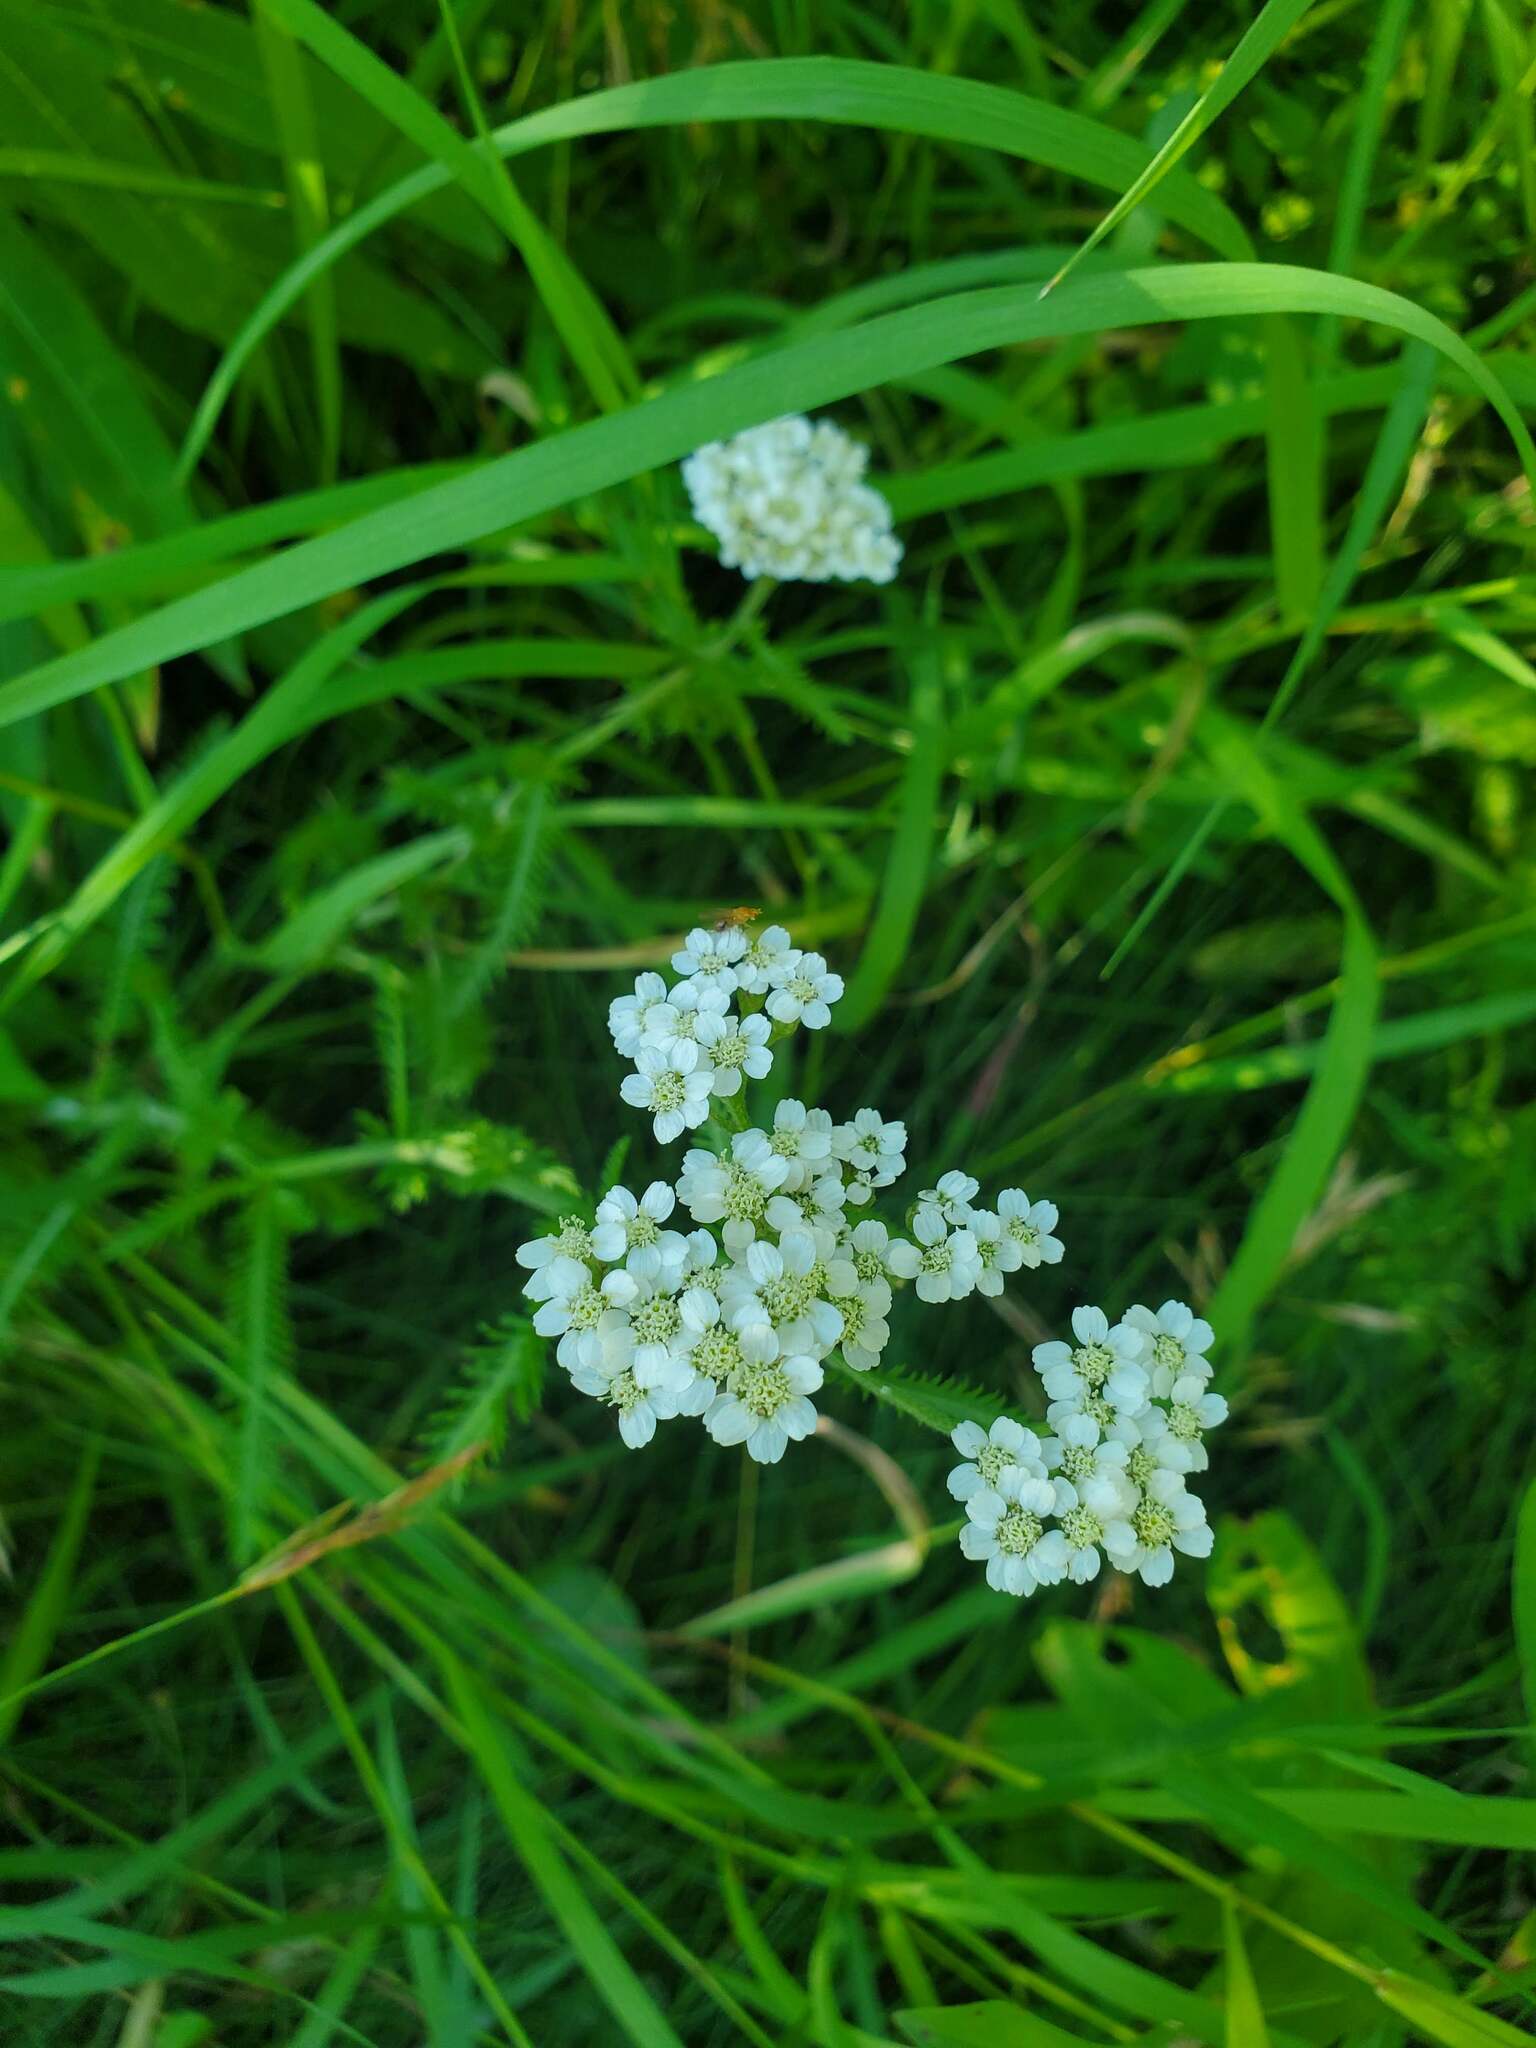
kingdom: Plantae
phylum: Tracheophyta
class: Magnoliopsida
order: Asterales
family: Asteraceae
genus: Achillea
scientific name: Achillea millefolium
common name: Yarrow
